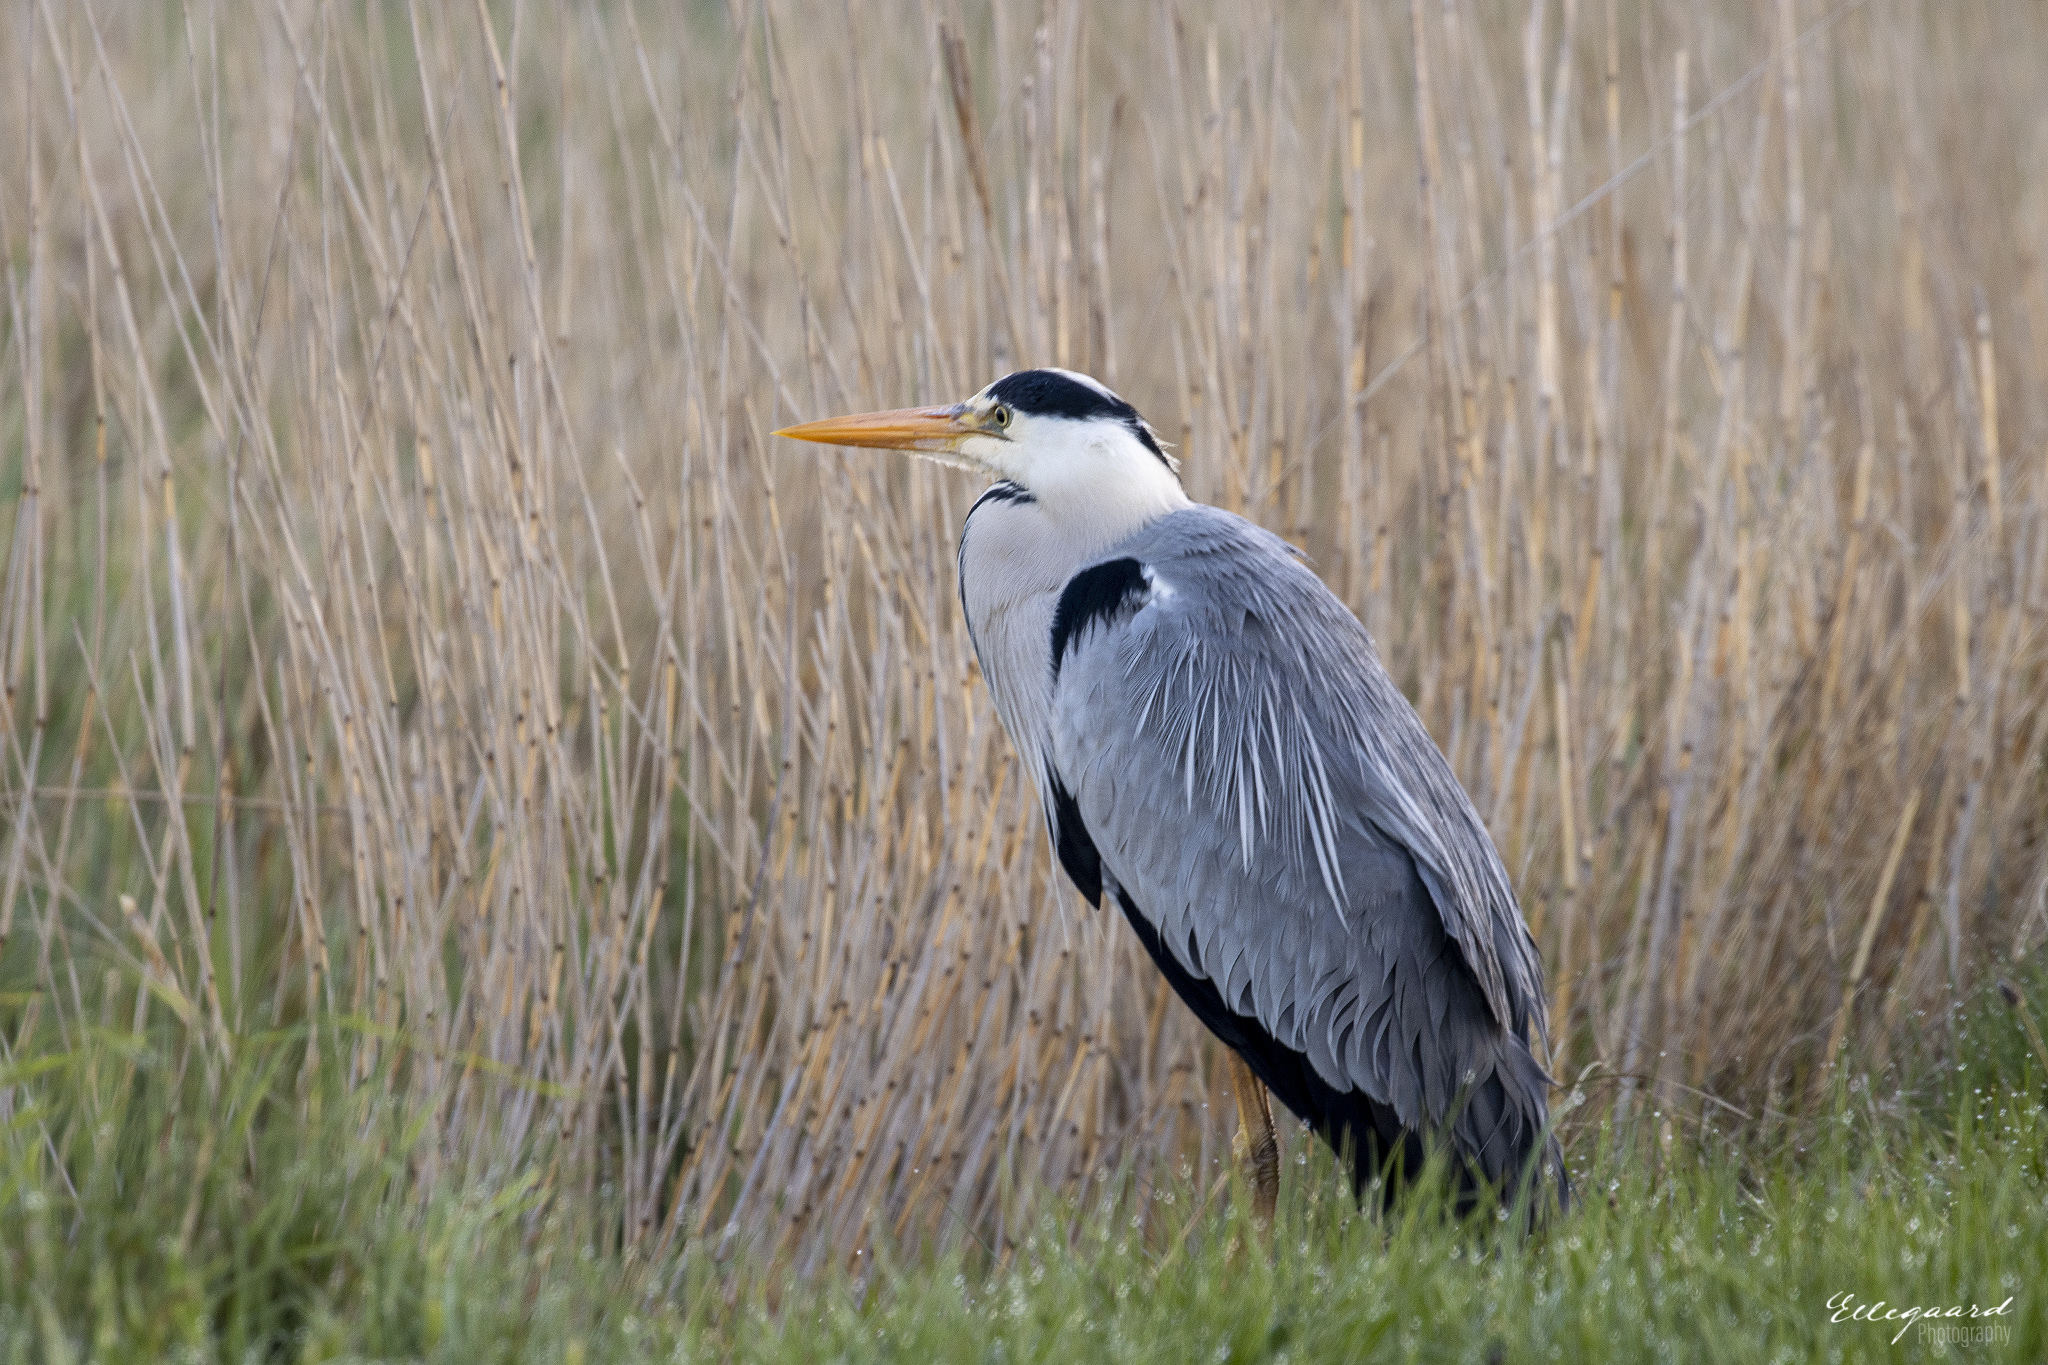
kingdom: Animalia
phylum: Chordata
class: Aves
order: Pelecaniformes
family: Ardeidae
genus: Ardea
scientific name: Ardea cinerea
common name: Grey heron
